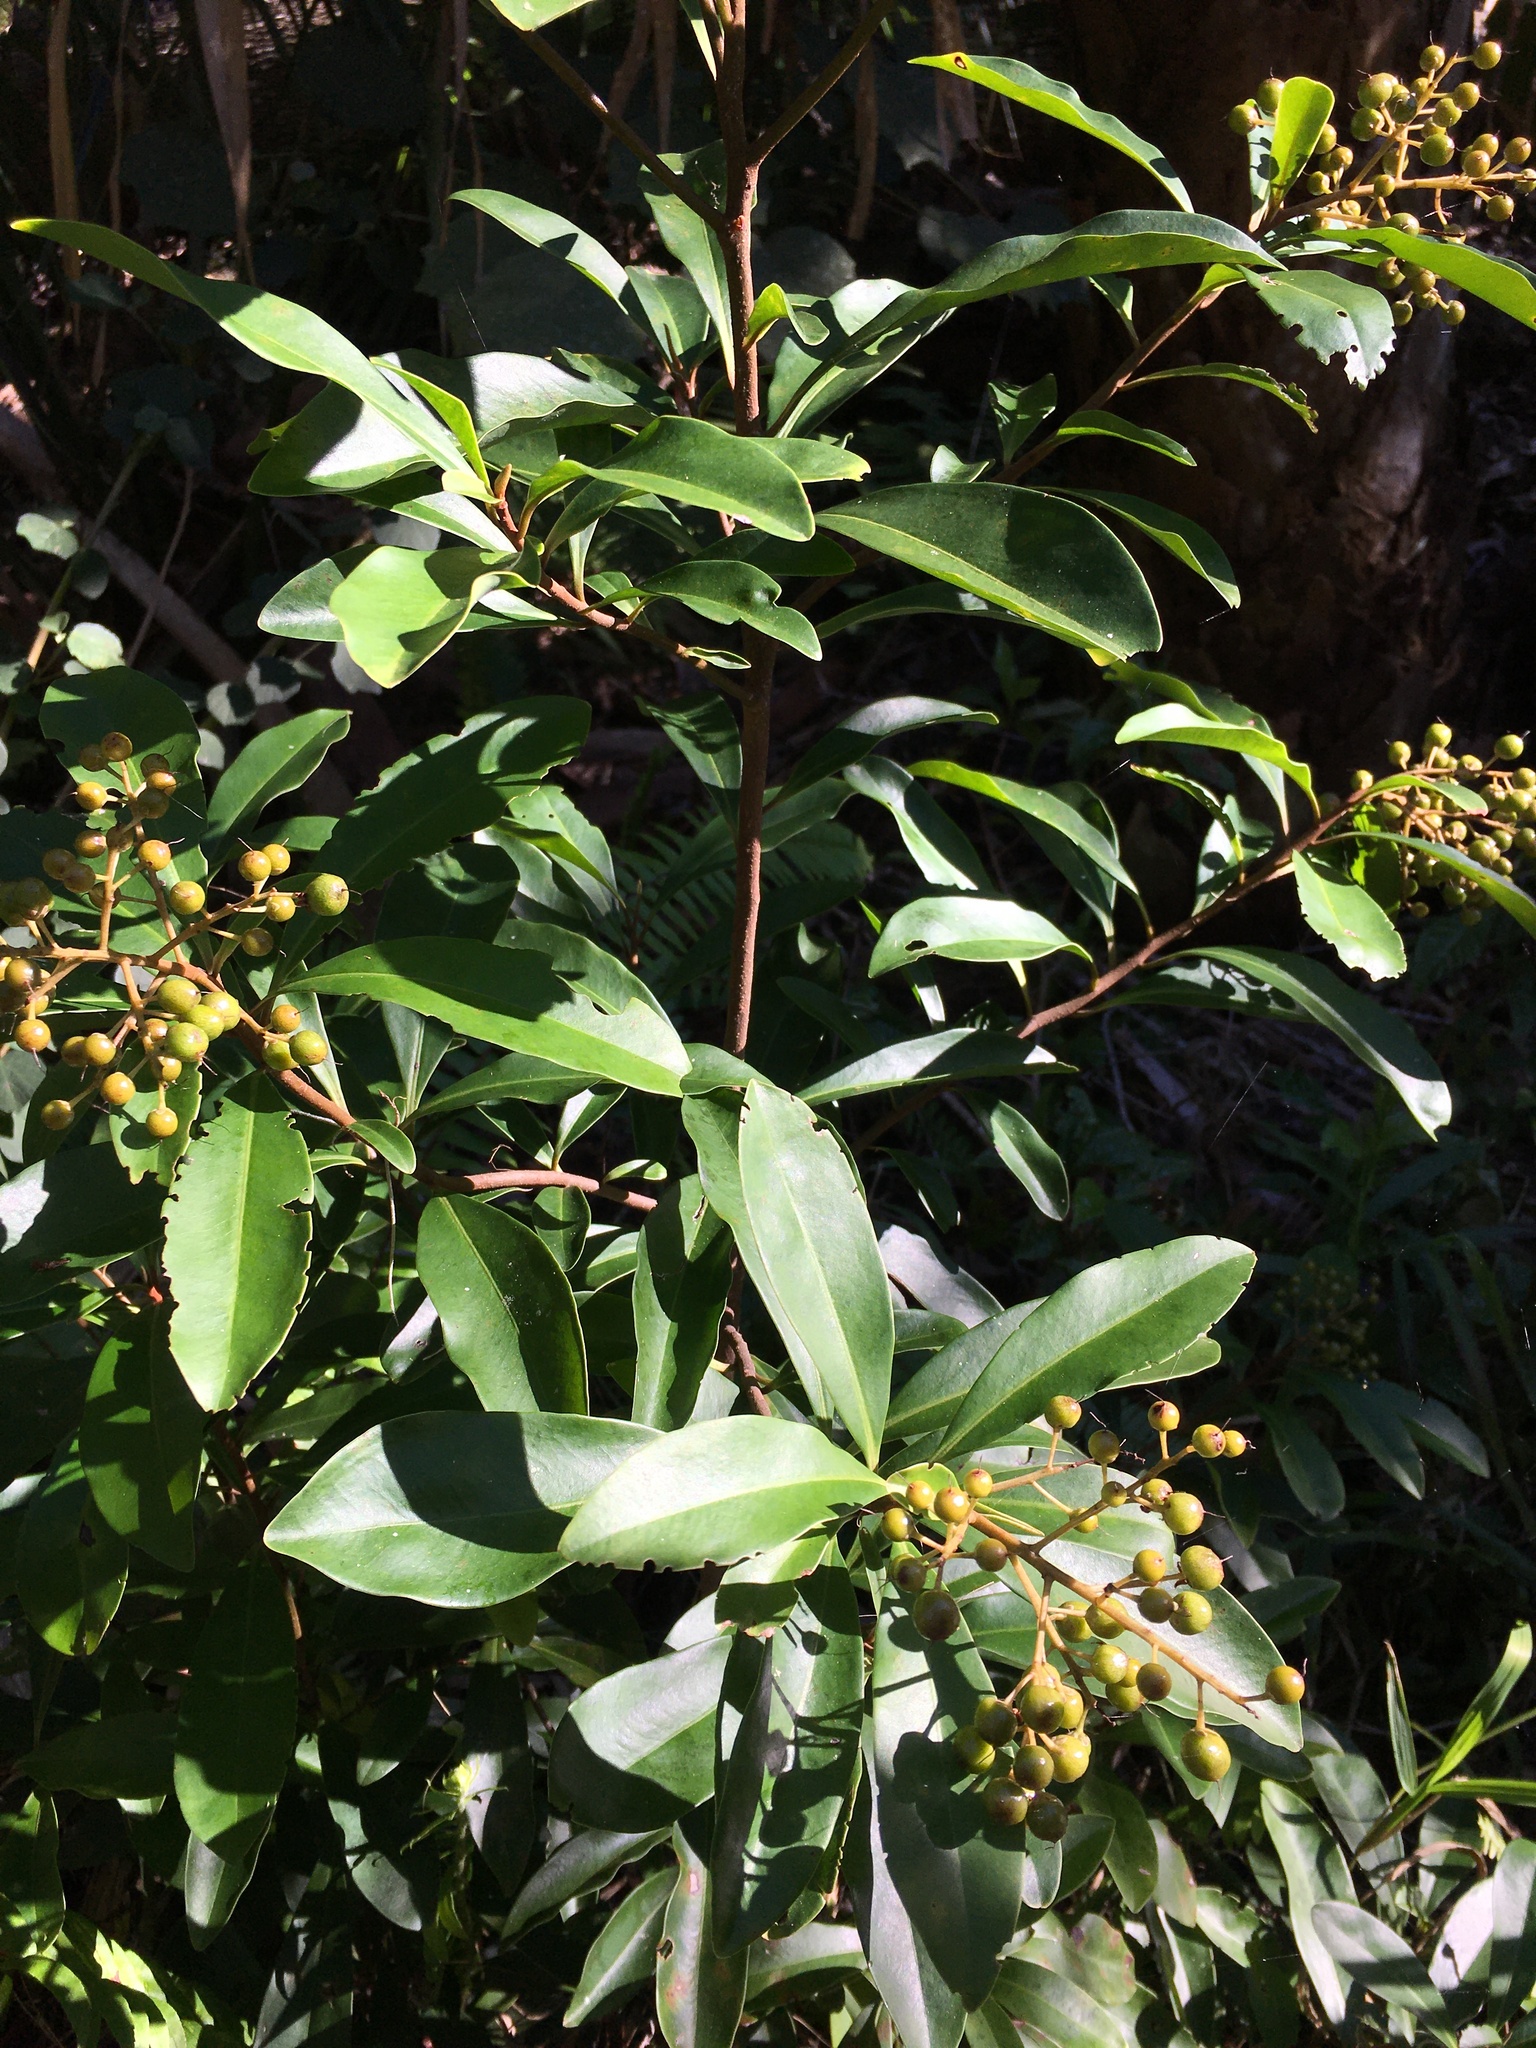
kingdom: Plantae
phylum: Tracheophyta
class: Magnoliopsida
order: Ericales
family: Primulaceae
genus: Ardisia
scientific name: Ardisia escallonioides
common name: Island marlberry
